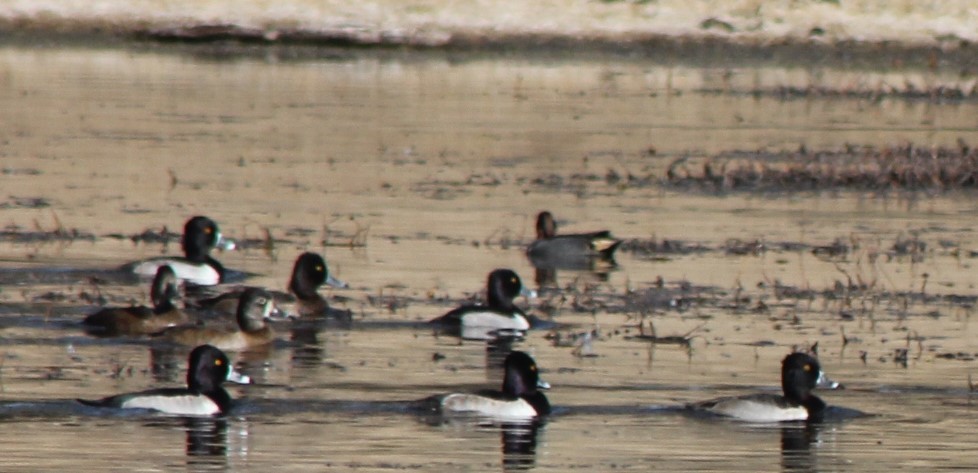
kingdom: Animalia
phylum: Chordata
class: Aves
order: Anseriformes
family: Anatidae
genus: Aythya
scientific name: Aythya collaris
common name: Ring-necked duck
